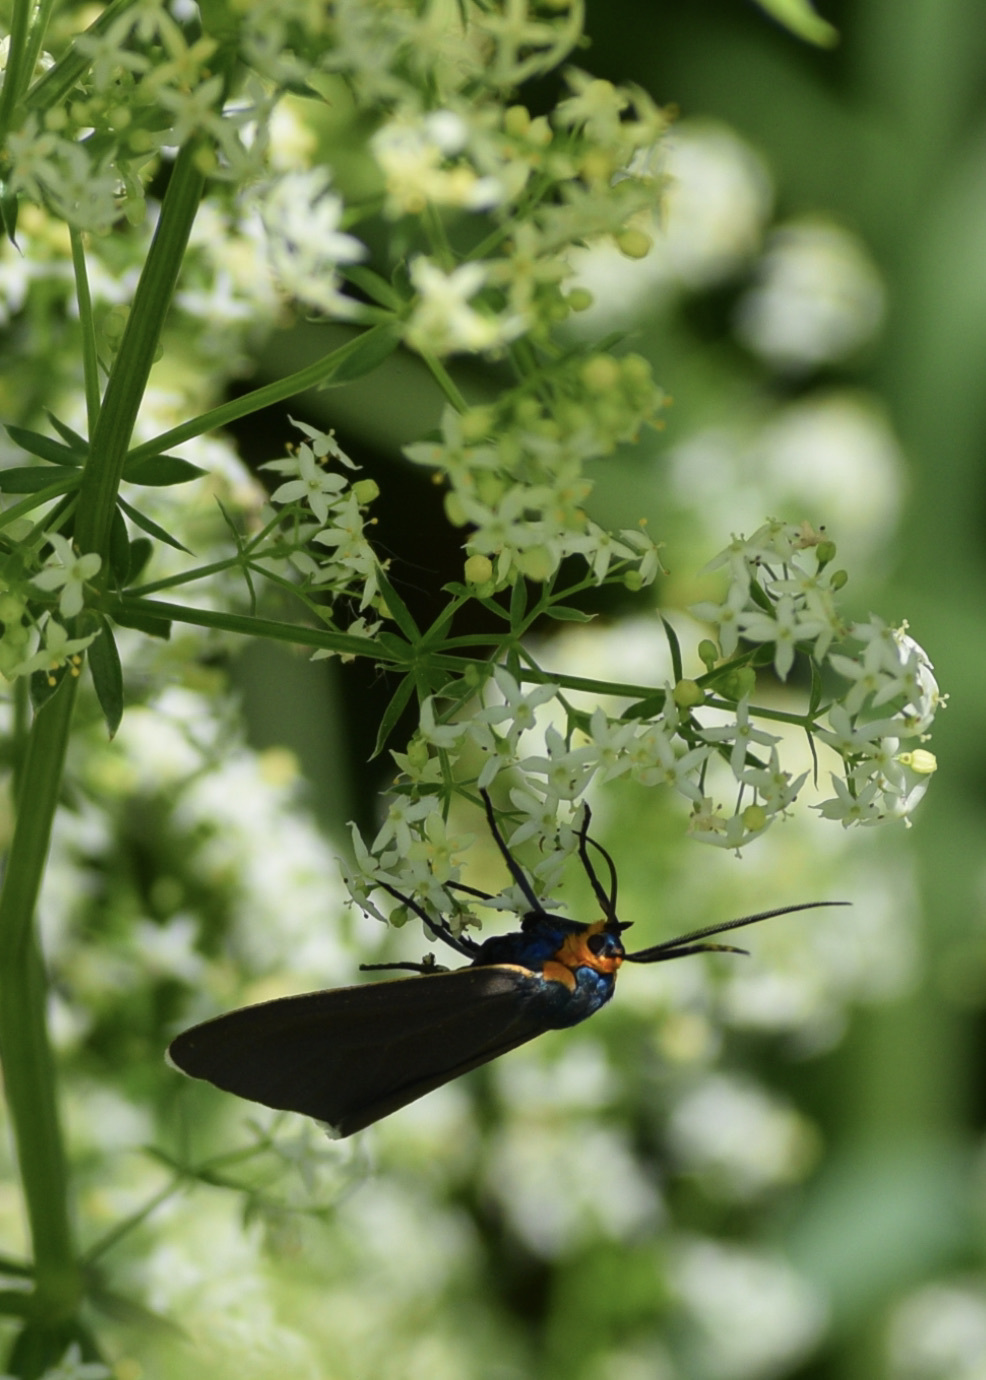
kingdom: Animalia
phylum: Arthropoda
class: Insecta
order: Lepidoptera
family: Erebidae
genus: Ctenucha
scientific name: Ctenucha virginica
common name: Virginia ctenucha moth
